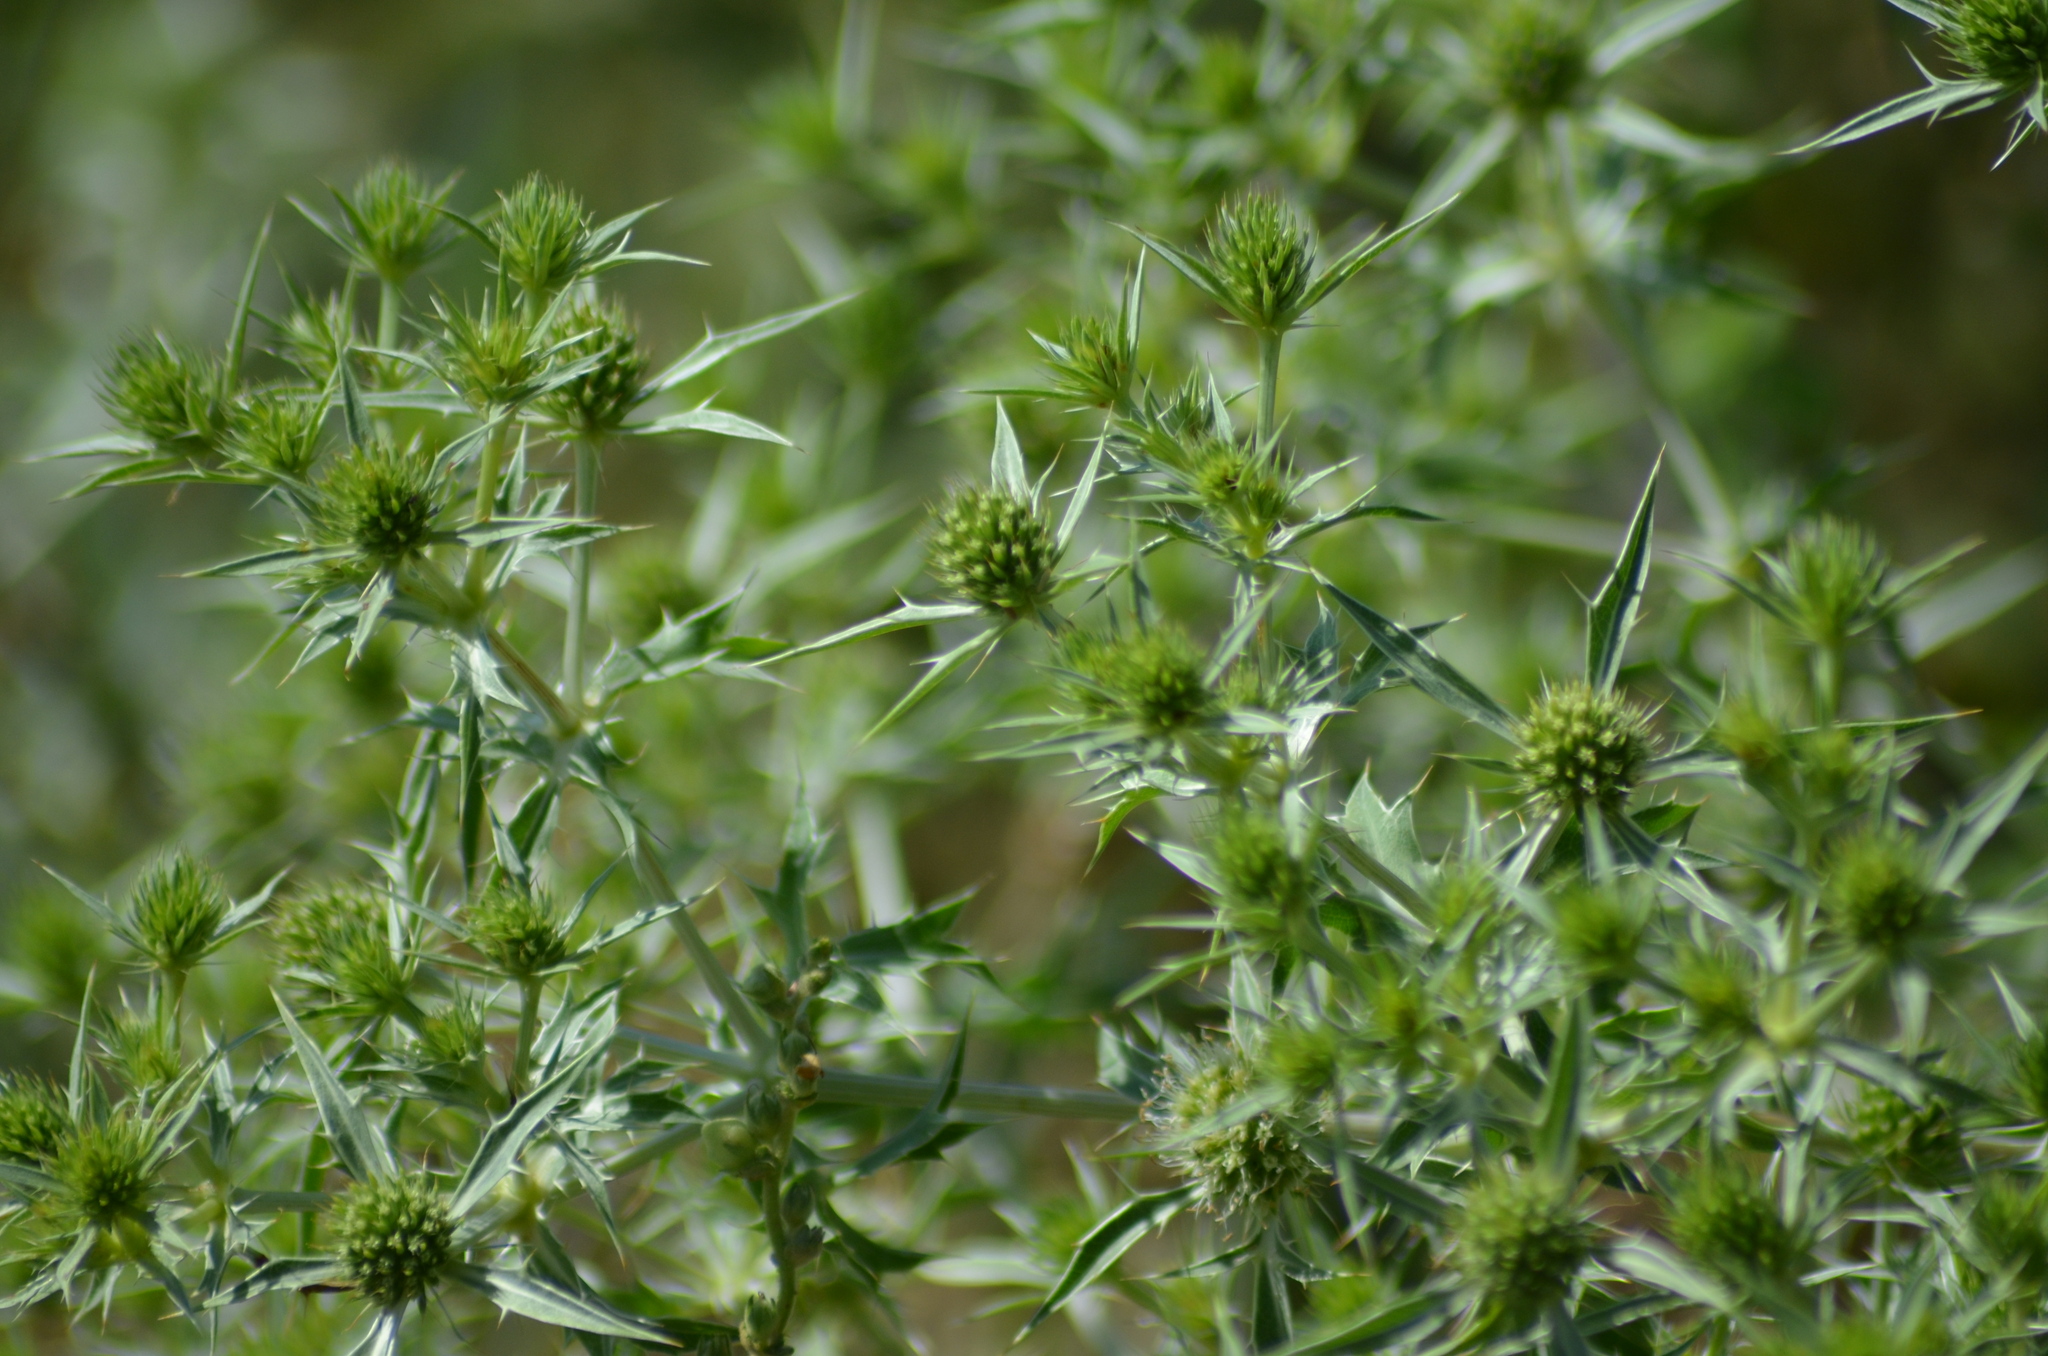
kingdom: Plantae
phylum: Tracheophyta
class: Magnoliopsida
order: Apiales
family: Apiaceae
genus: Eryngium
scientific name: Eryngium campestre
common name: Field eryngo
